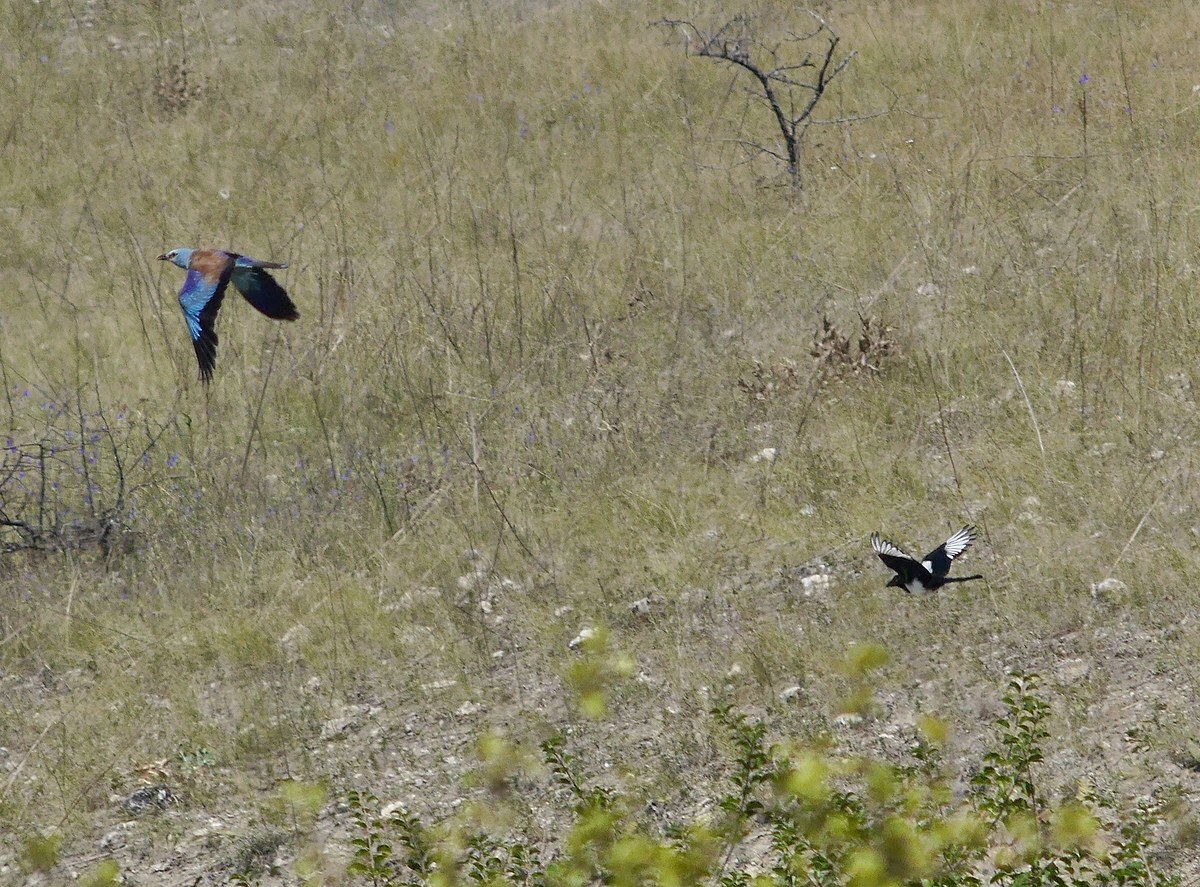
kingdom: Animalia
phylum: Chordata
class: Aves
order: Coraciiformes
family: Coraciidae
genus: Coracias
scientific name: Coracias garrulus
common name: European roller
